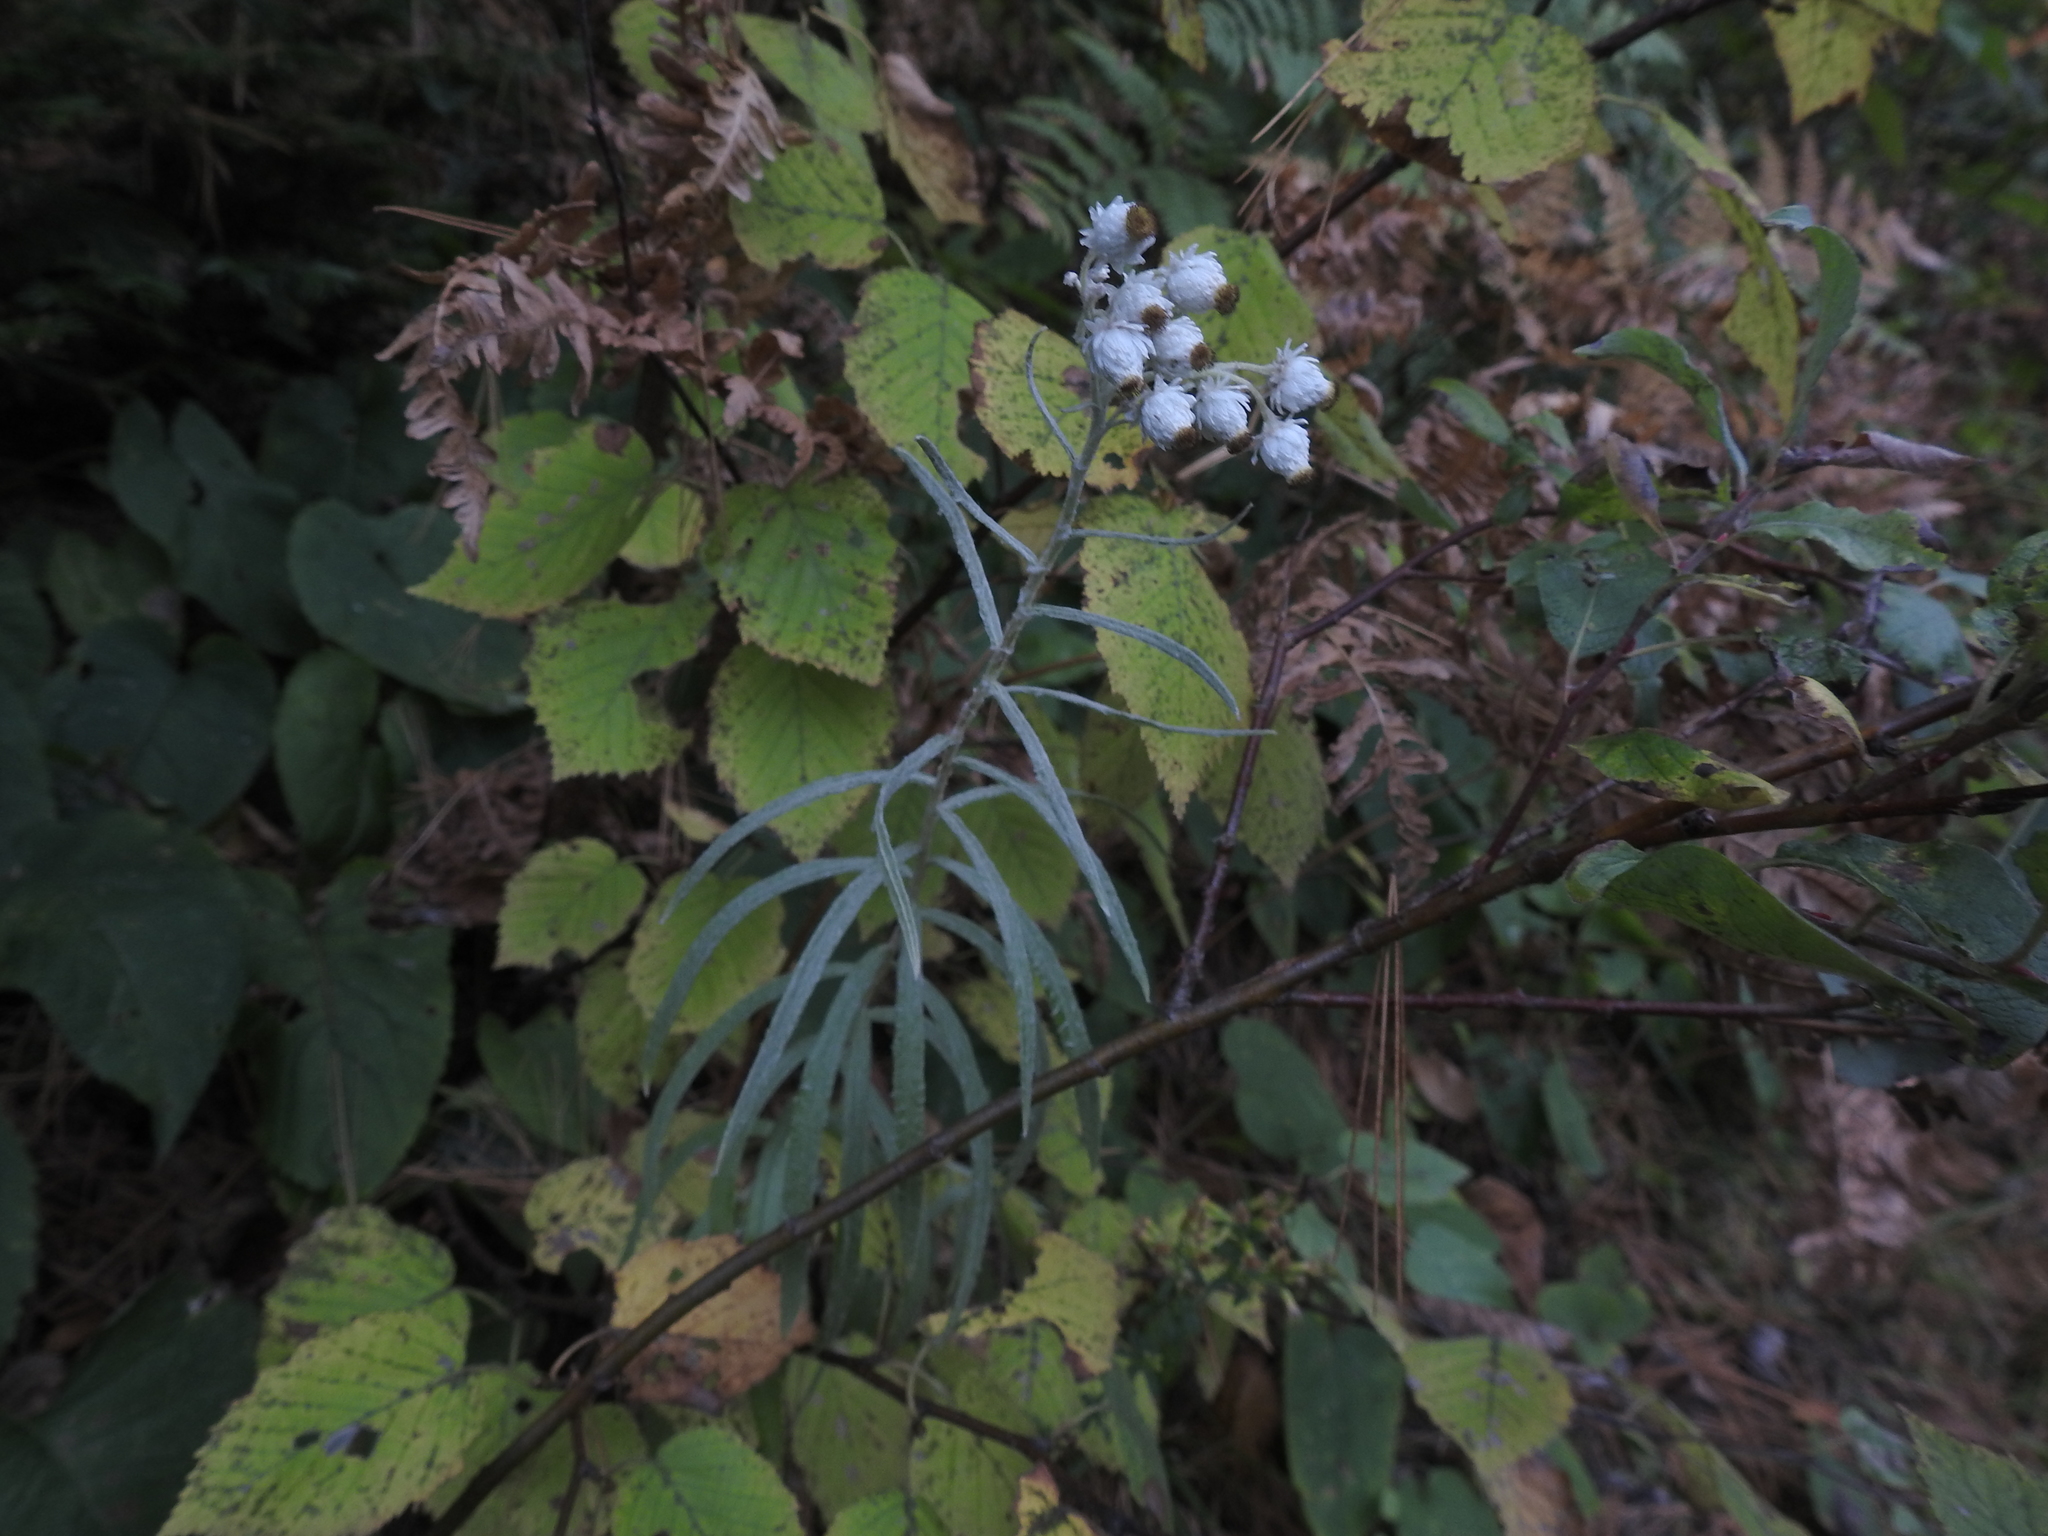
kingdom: Plantae
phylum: Tracheophyta
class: Magnoliopsida
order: Asterales
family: Asteraceae
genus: Anaphalis
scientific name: Anaphalis margaritacea
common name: Pearly everlasting
